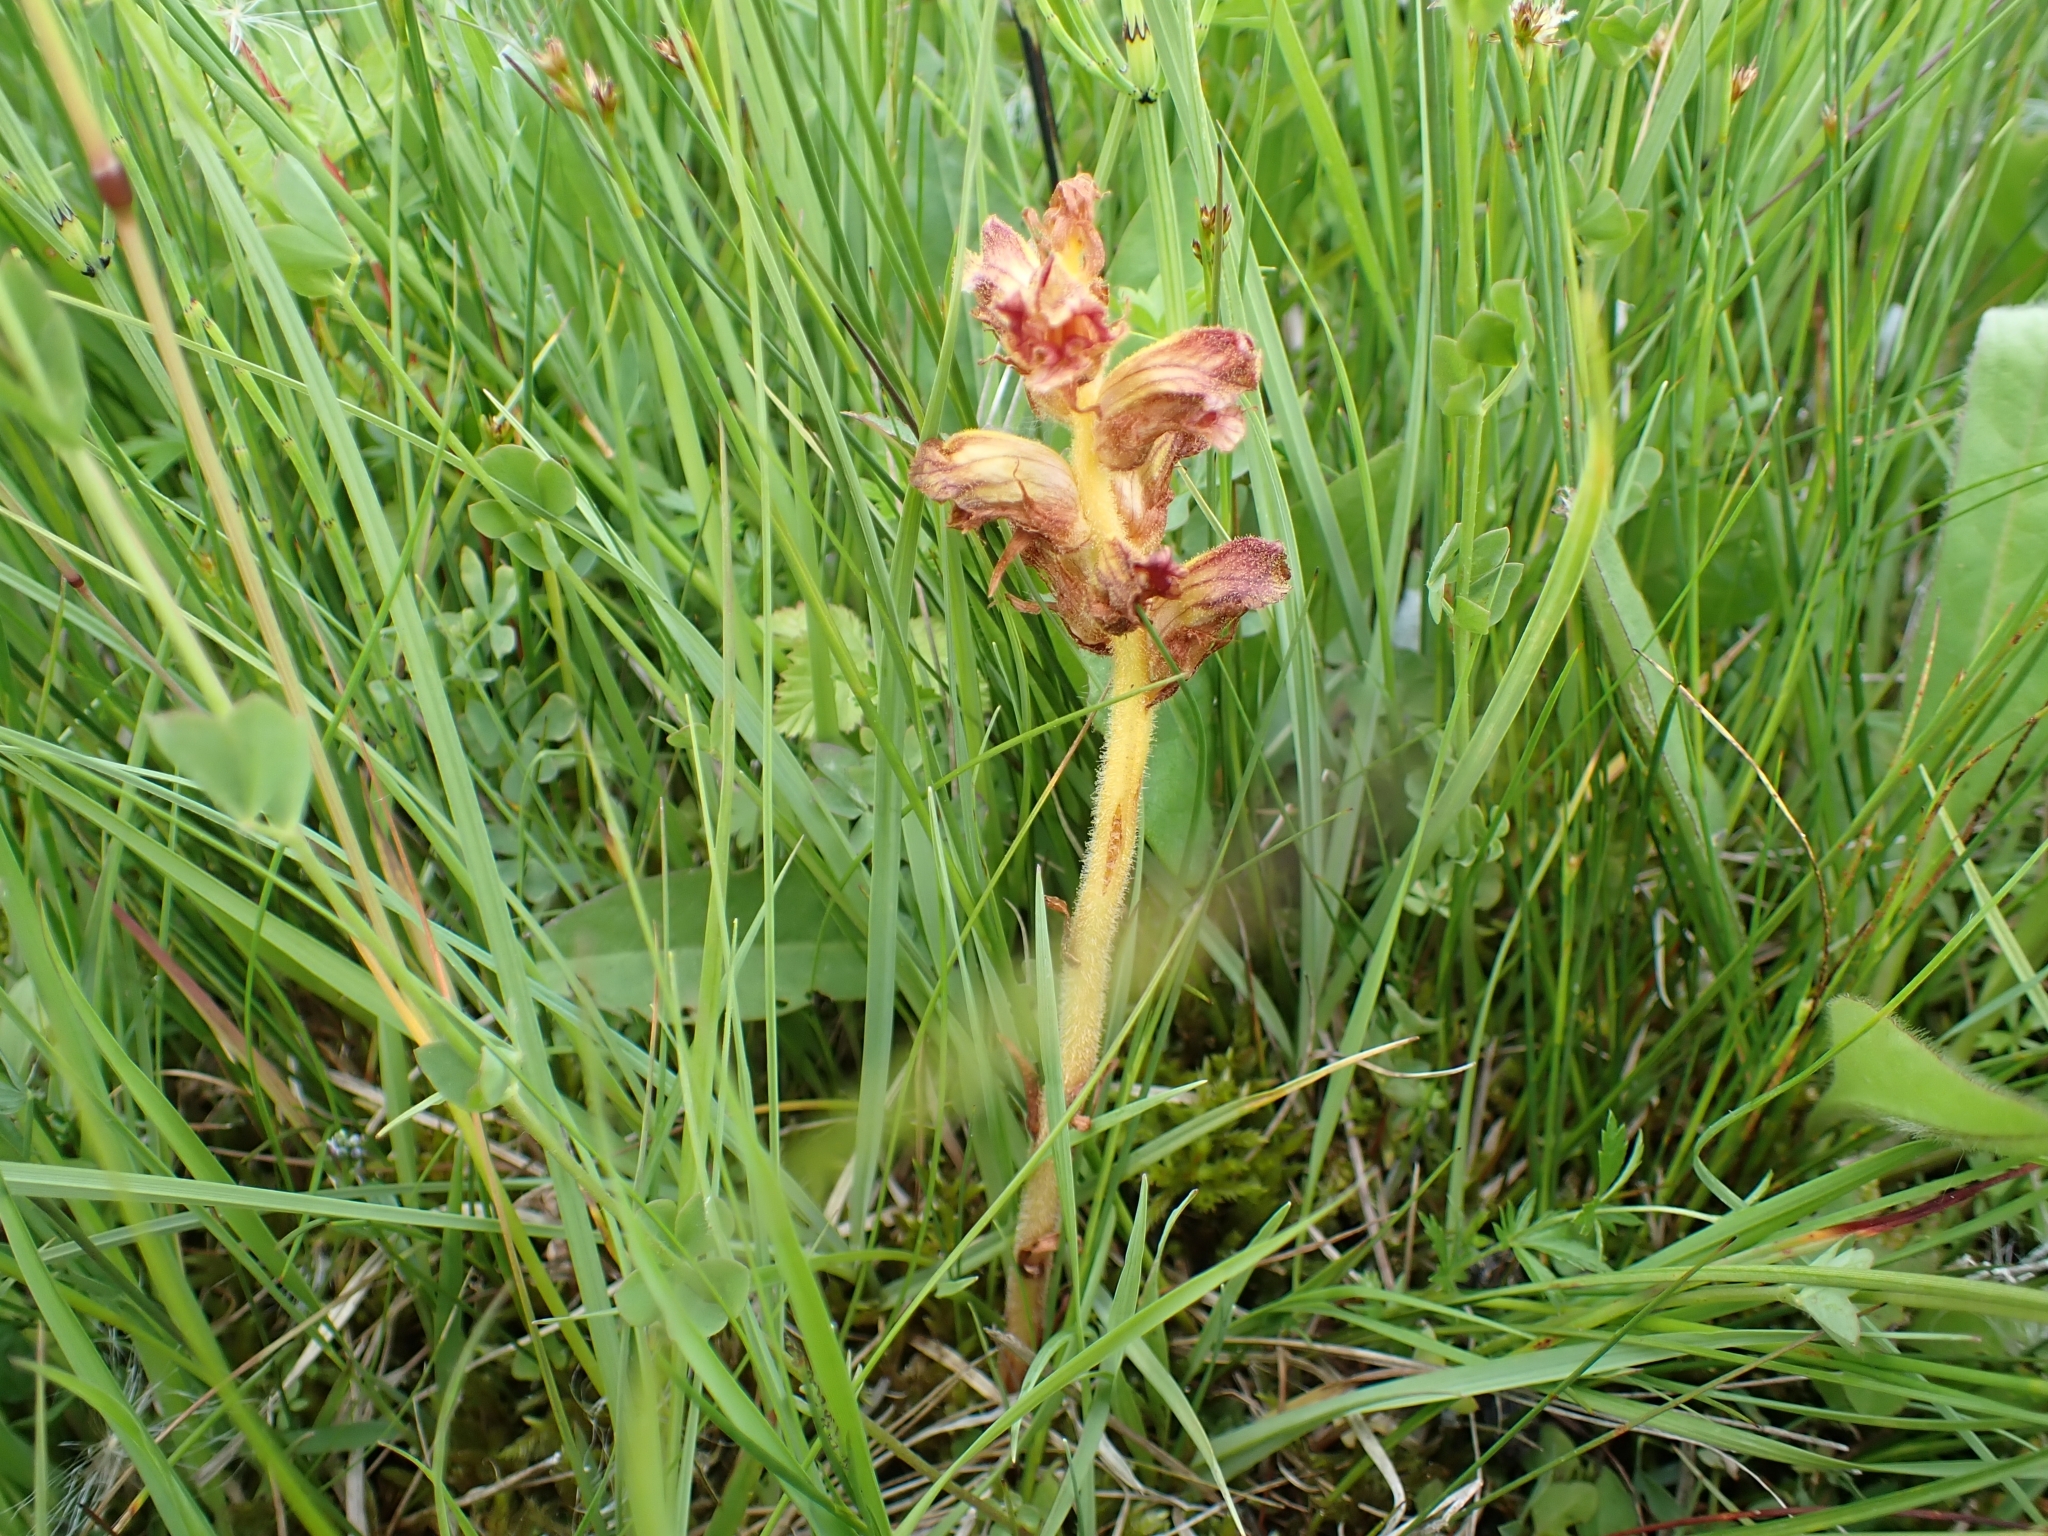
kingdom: Plantae
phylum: Tracheophyta
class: Magnoliopsida
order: Lamiales
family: Orobanchaceae
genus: Orobanche
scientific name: Orobanche gracilis
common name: Slender broomrape
